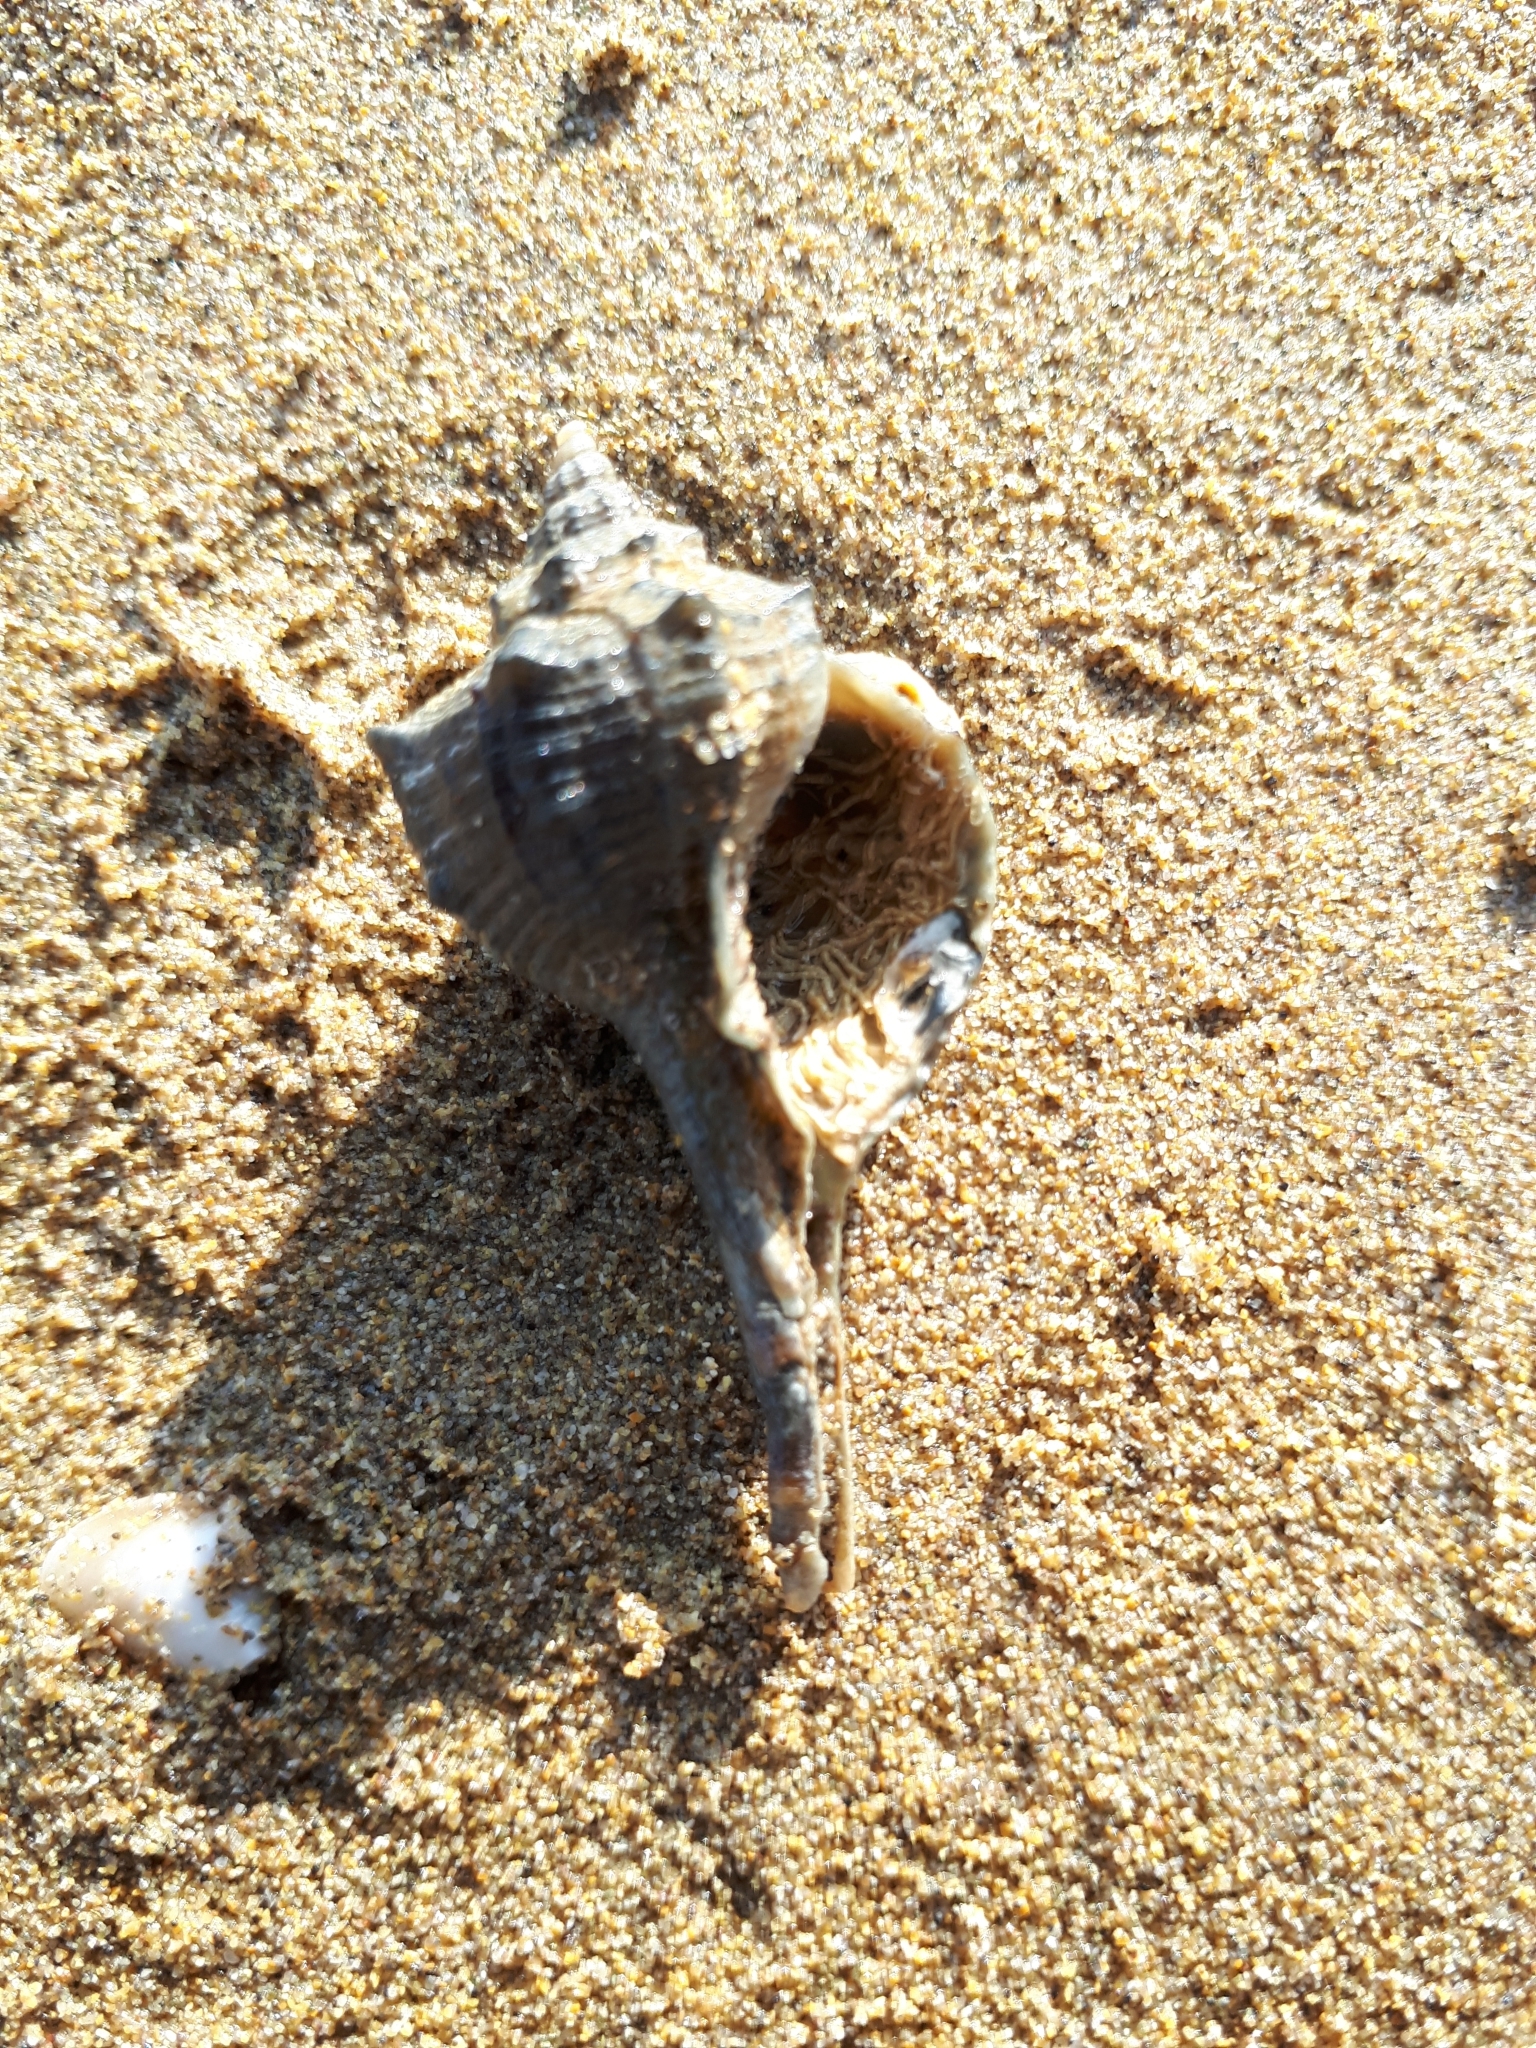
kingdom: Animalia
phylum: Mollusca
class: Gastropoda
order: Neogastropoda
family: Muricidae
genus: Bolinus
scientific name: Bolinus brandaris
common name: Dye murex
